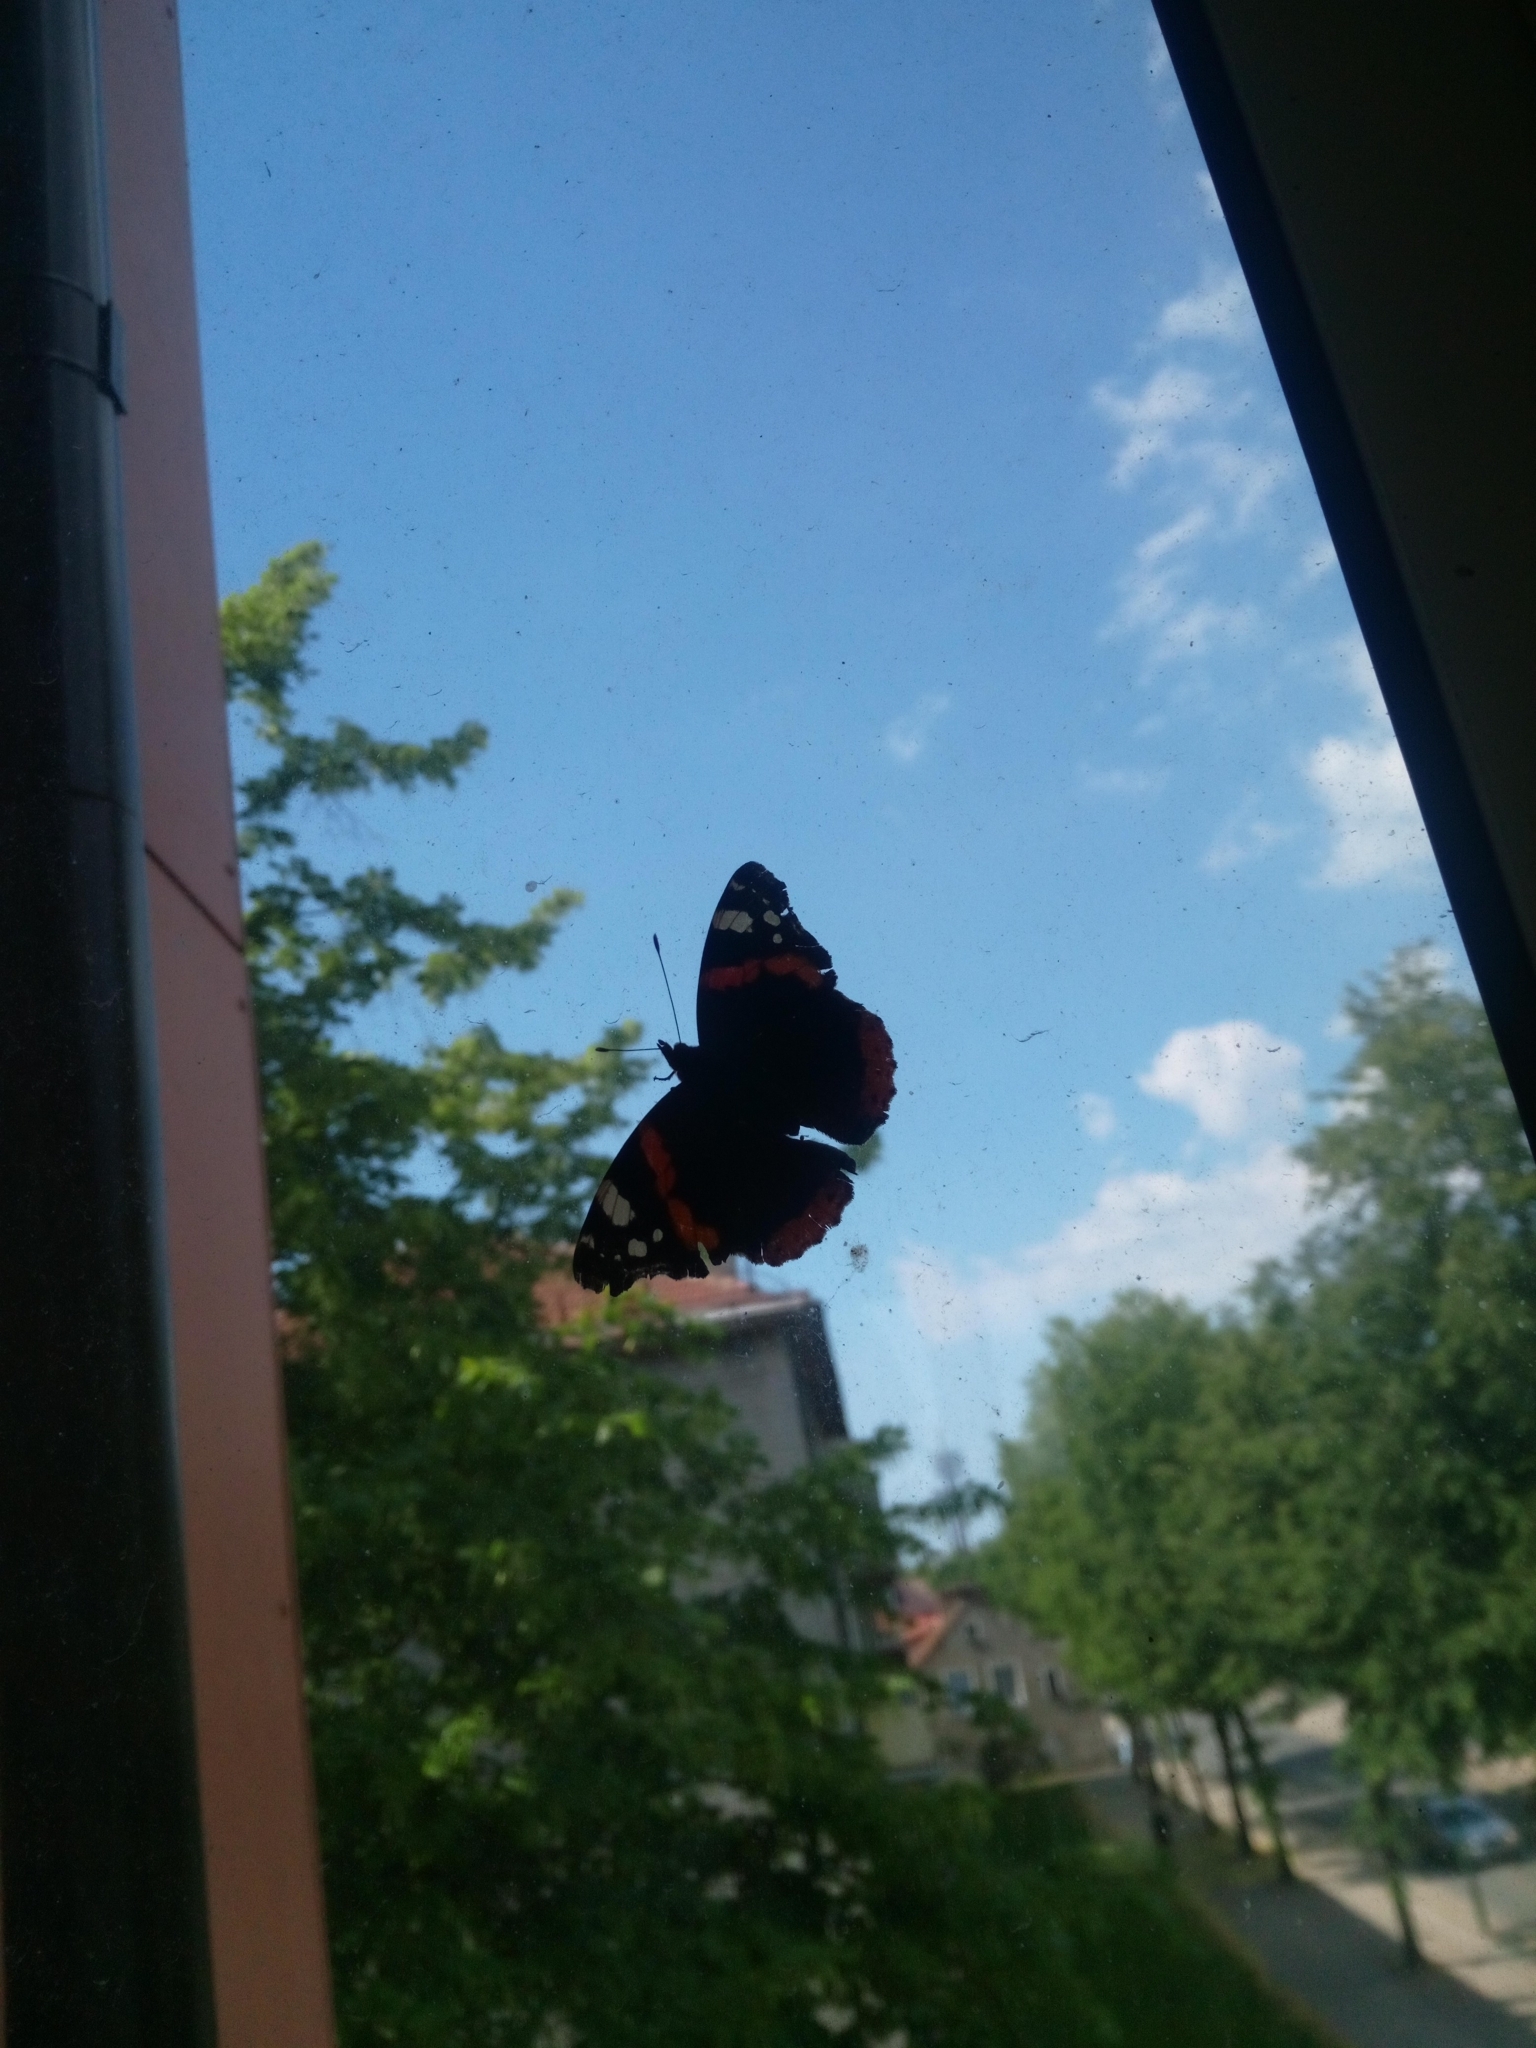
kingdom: Animalia
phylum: Arthropoda
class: Insecta
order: Lepidoptera
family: Nymphalidae
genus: Vanessa
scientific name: Vanessa atalanta
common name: Red admiral
